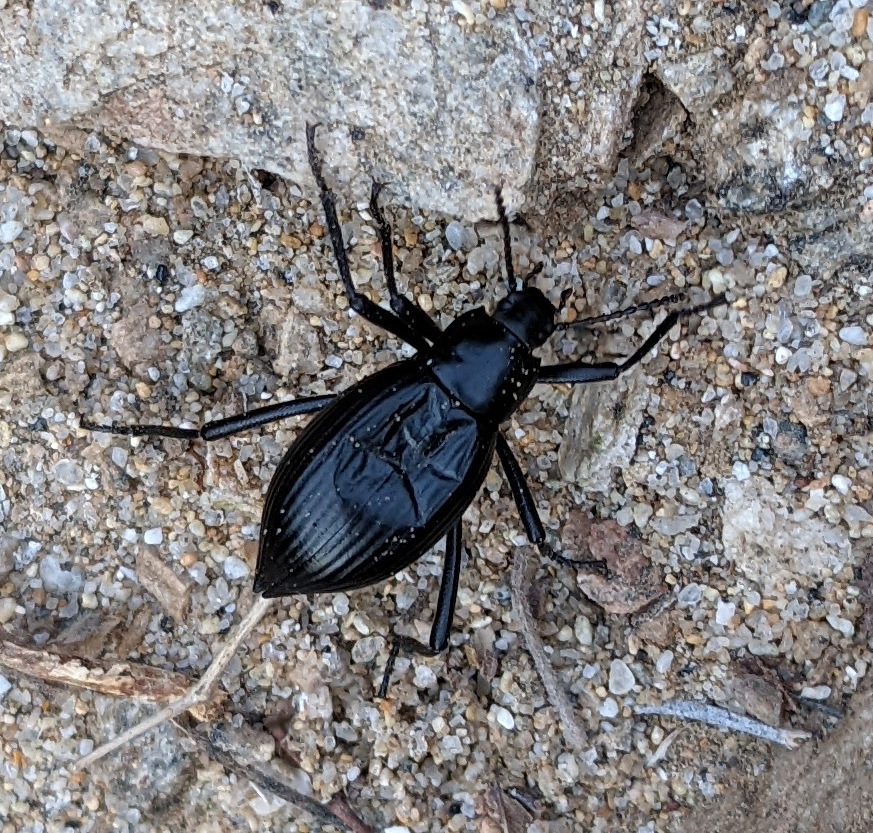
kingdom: Animalia
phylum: Arthropoda
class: Insecta
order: Coleoptera
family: Tenebrionidae
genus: Eleodes
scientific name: Eleodes mexicana
